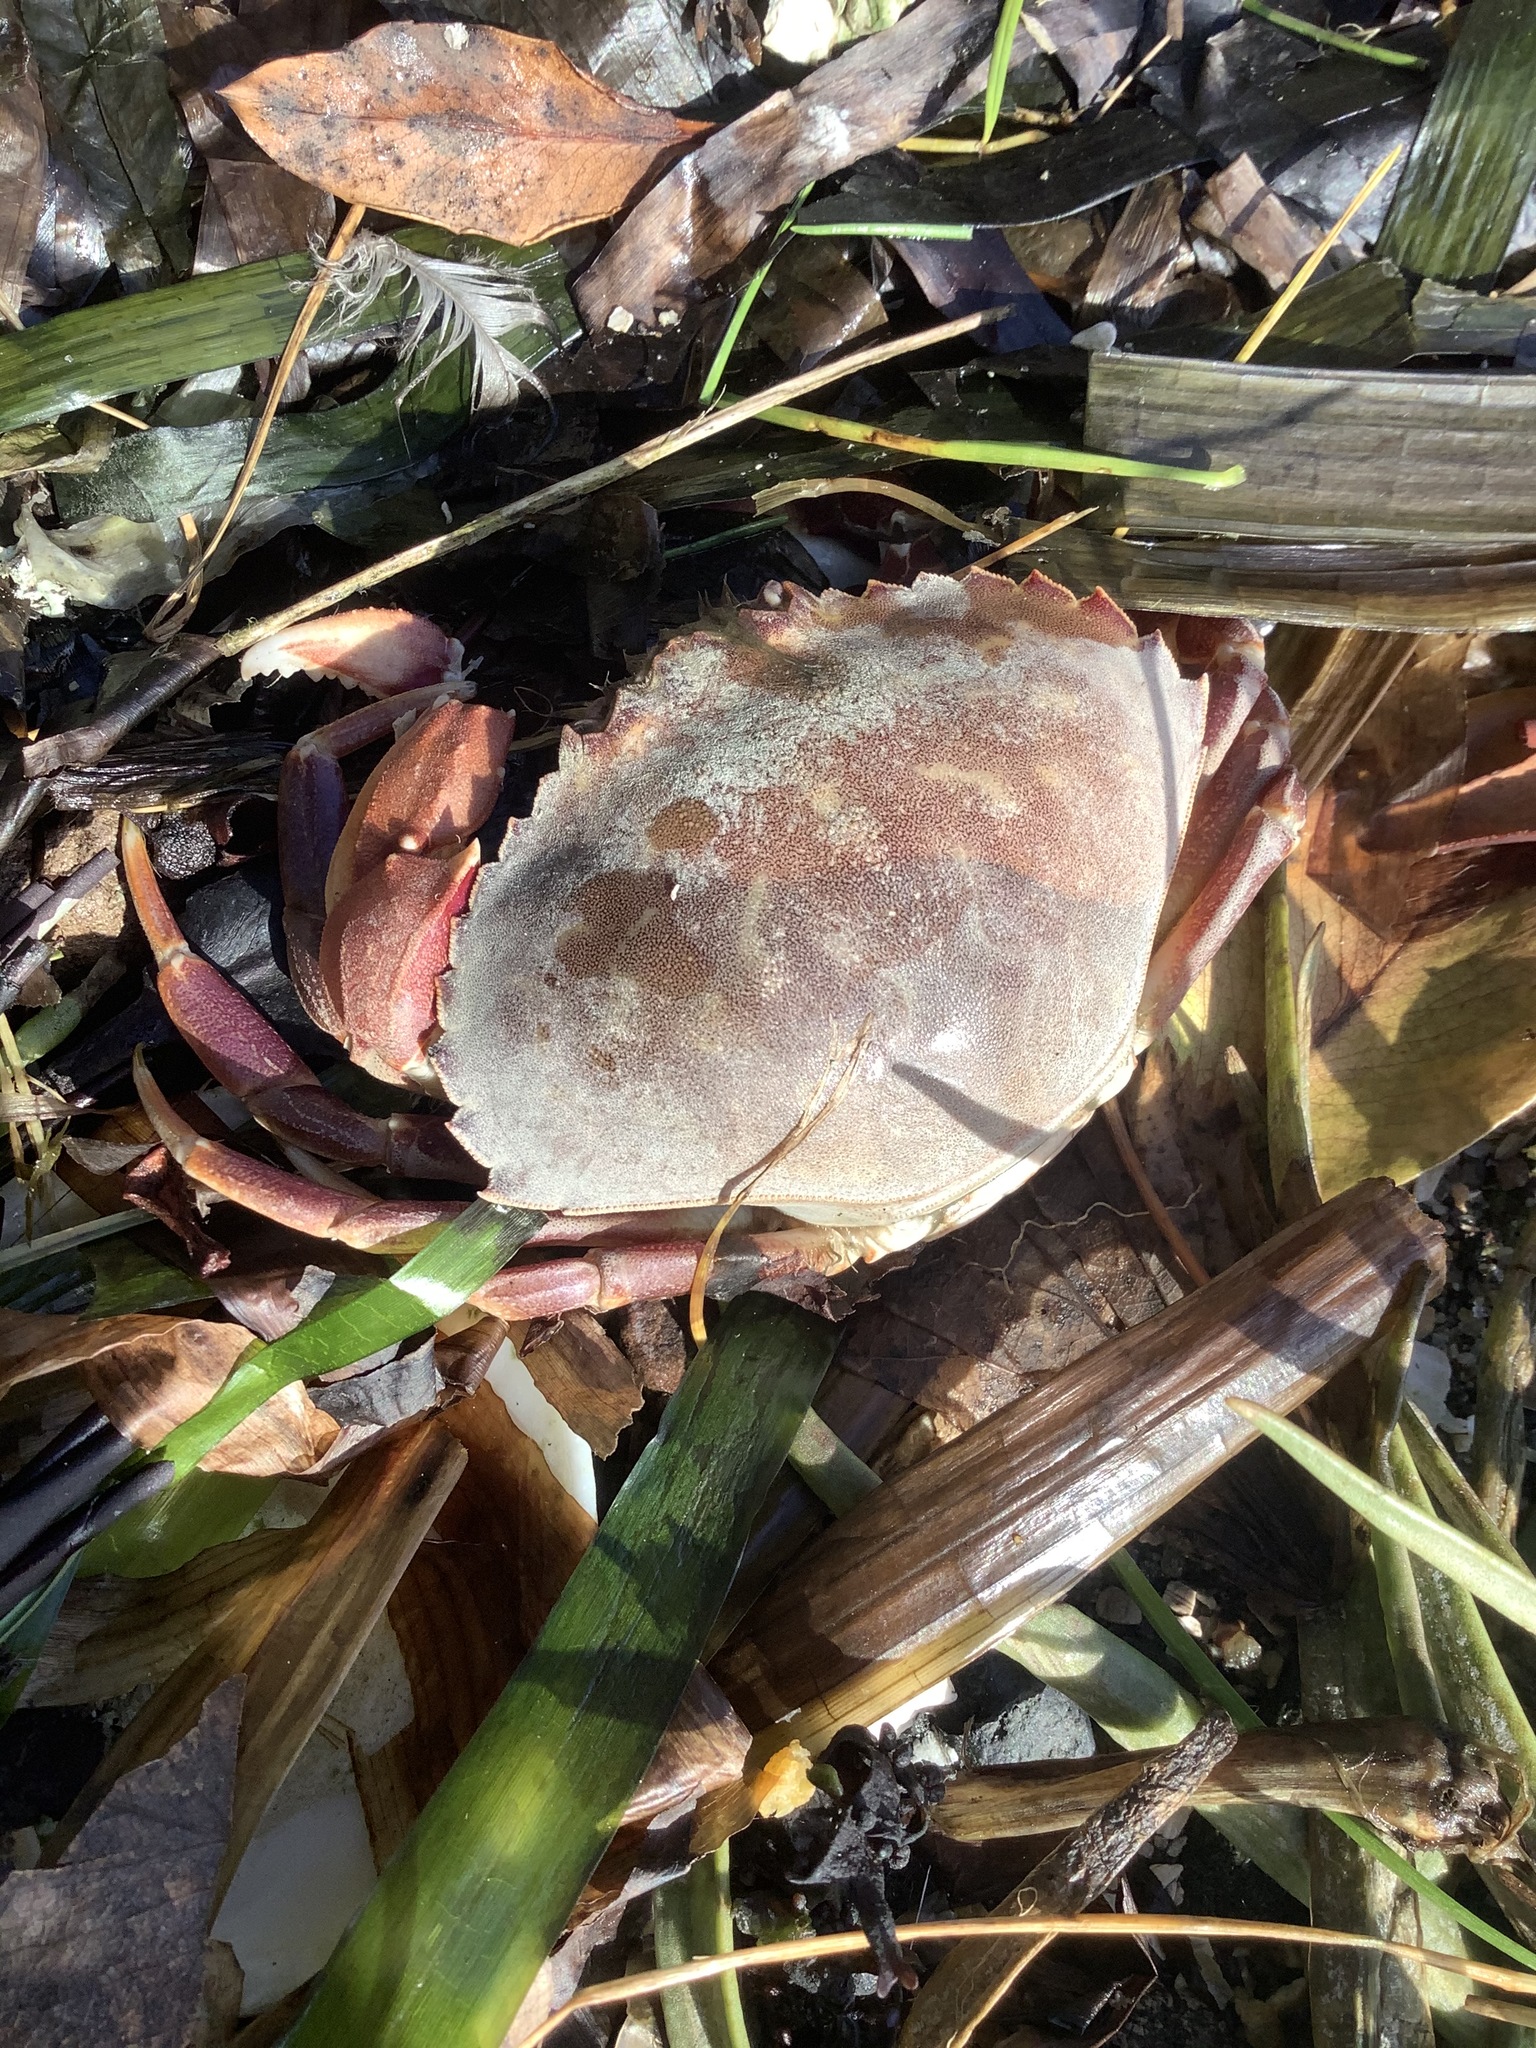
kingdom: Animalia
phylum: Arthropoda
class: Malacostraca
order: Decapoda
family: Cancridae
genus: Metacarcinus
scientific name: Metacarcinus gracilis
